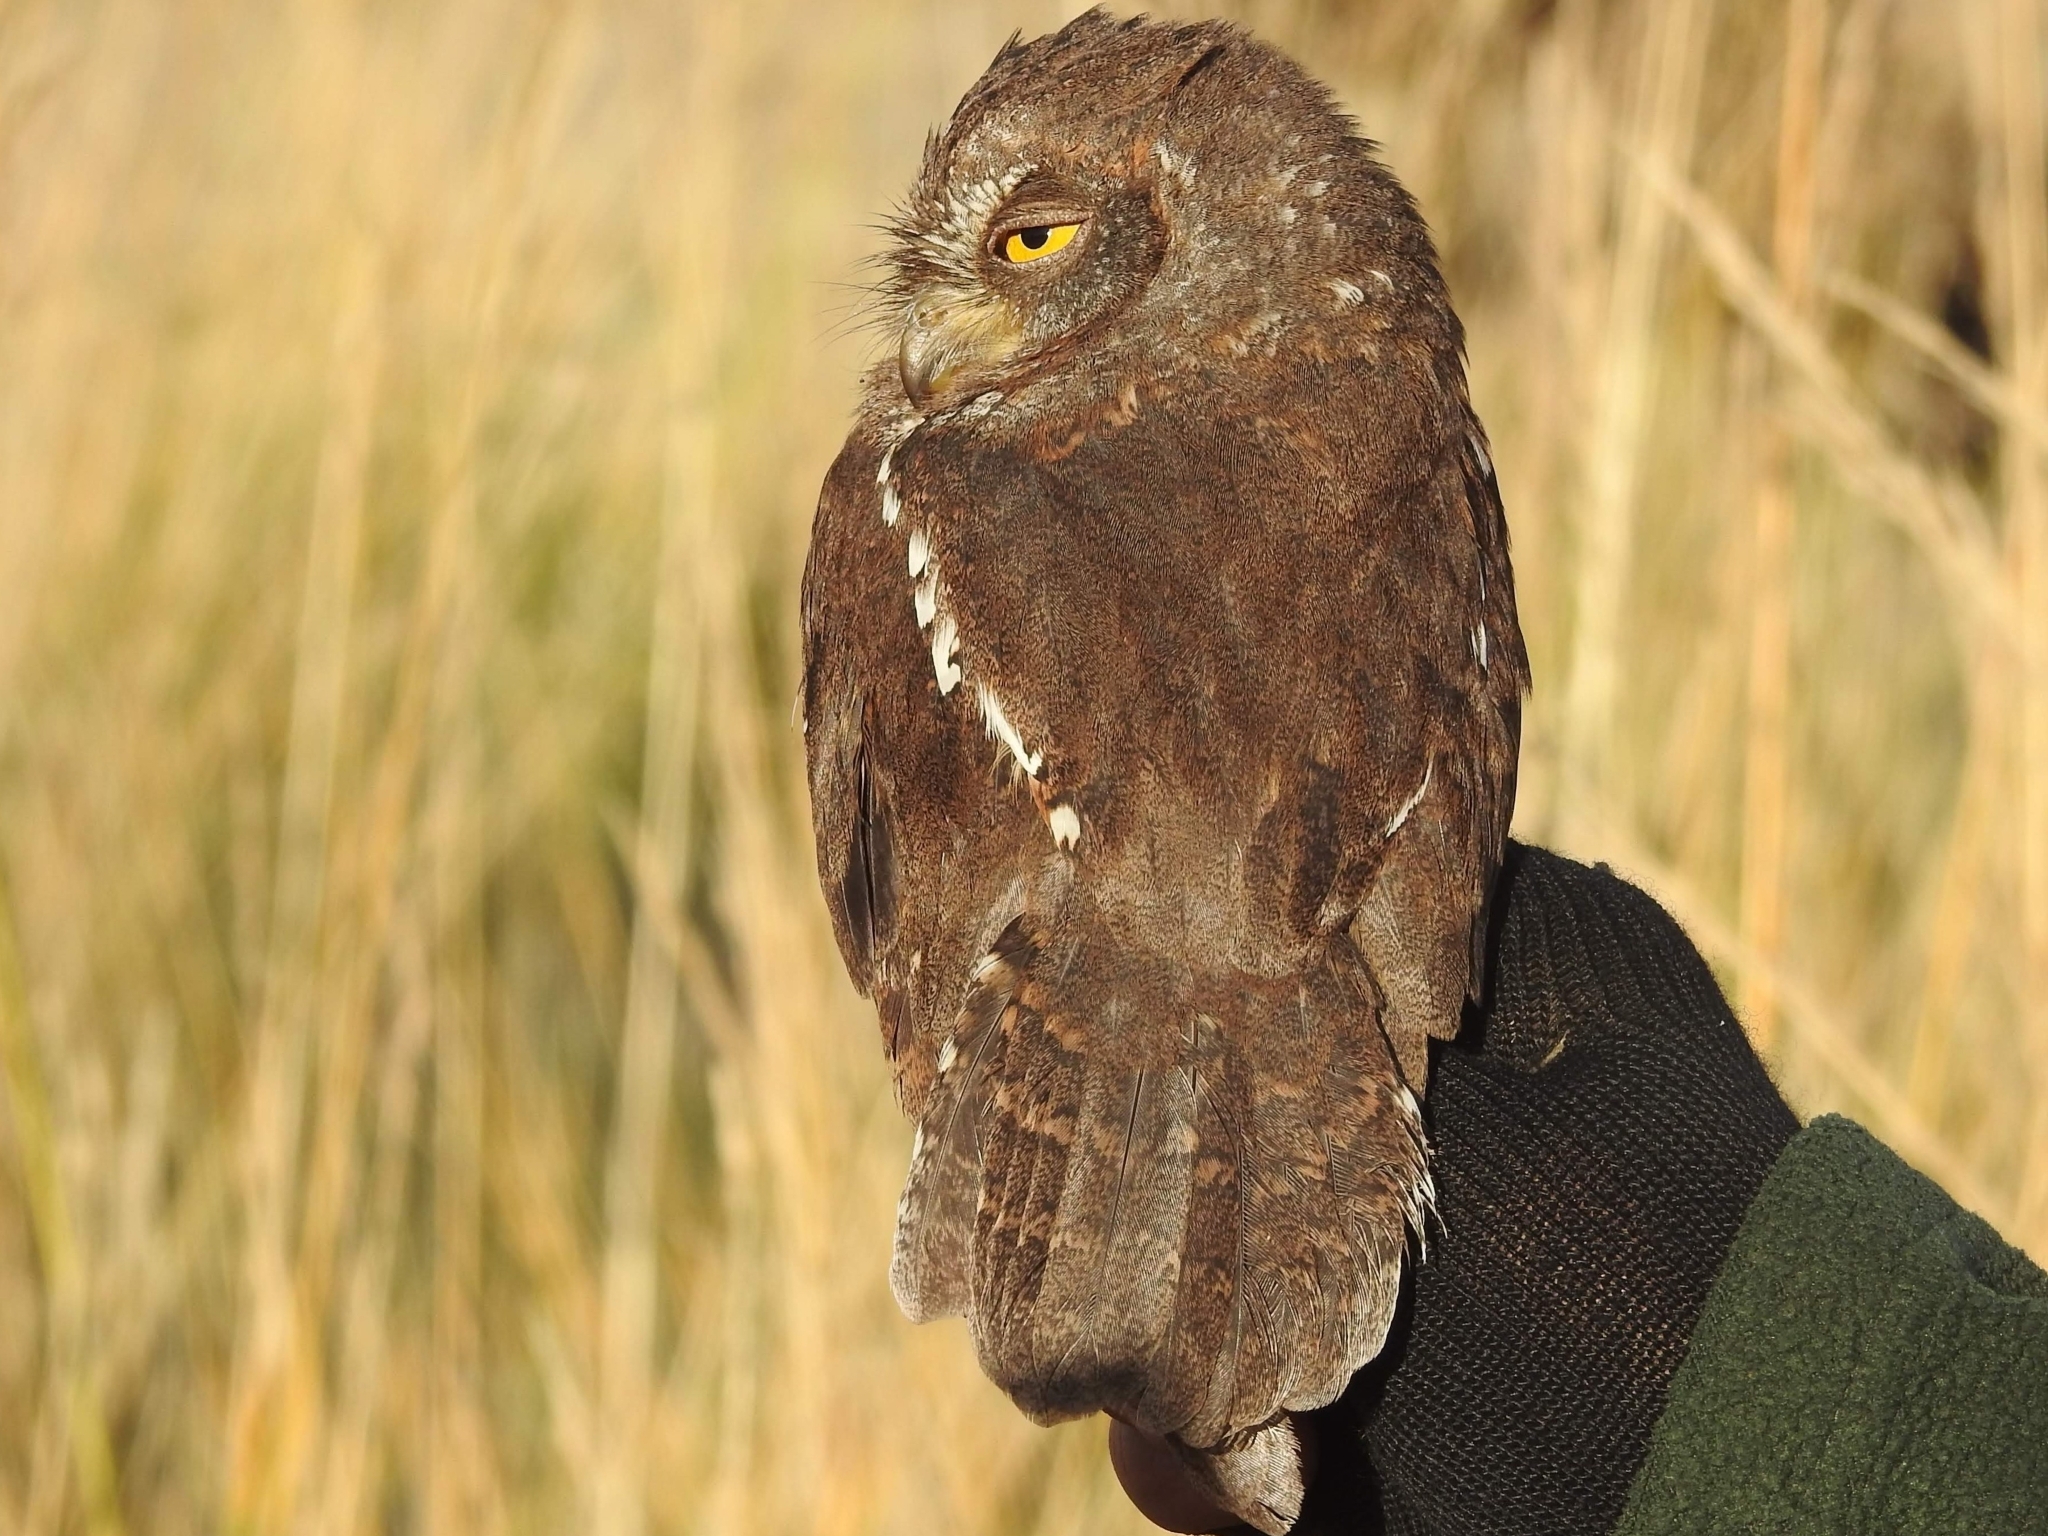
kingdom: Animalia
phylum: Chordata
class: Aves
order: Strigiformes
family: Strigidae
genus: Otus
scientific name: Otus sunia
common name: Oriental scops-owl
